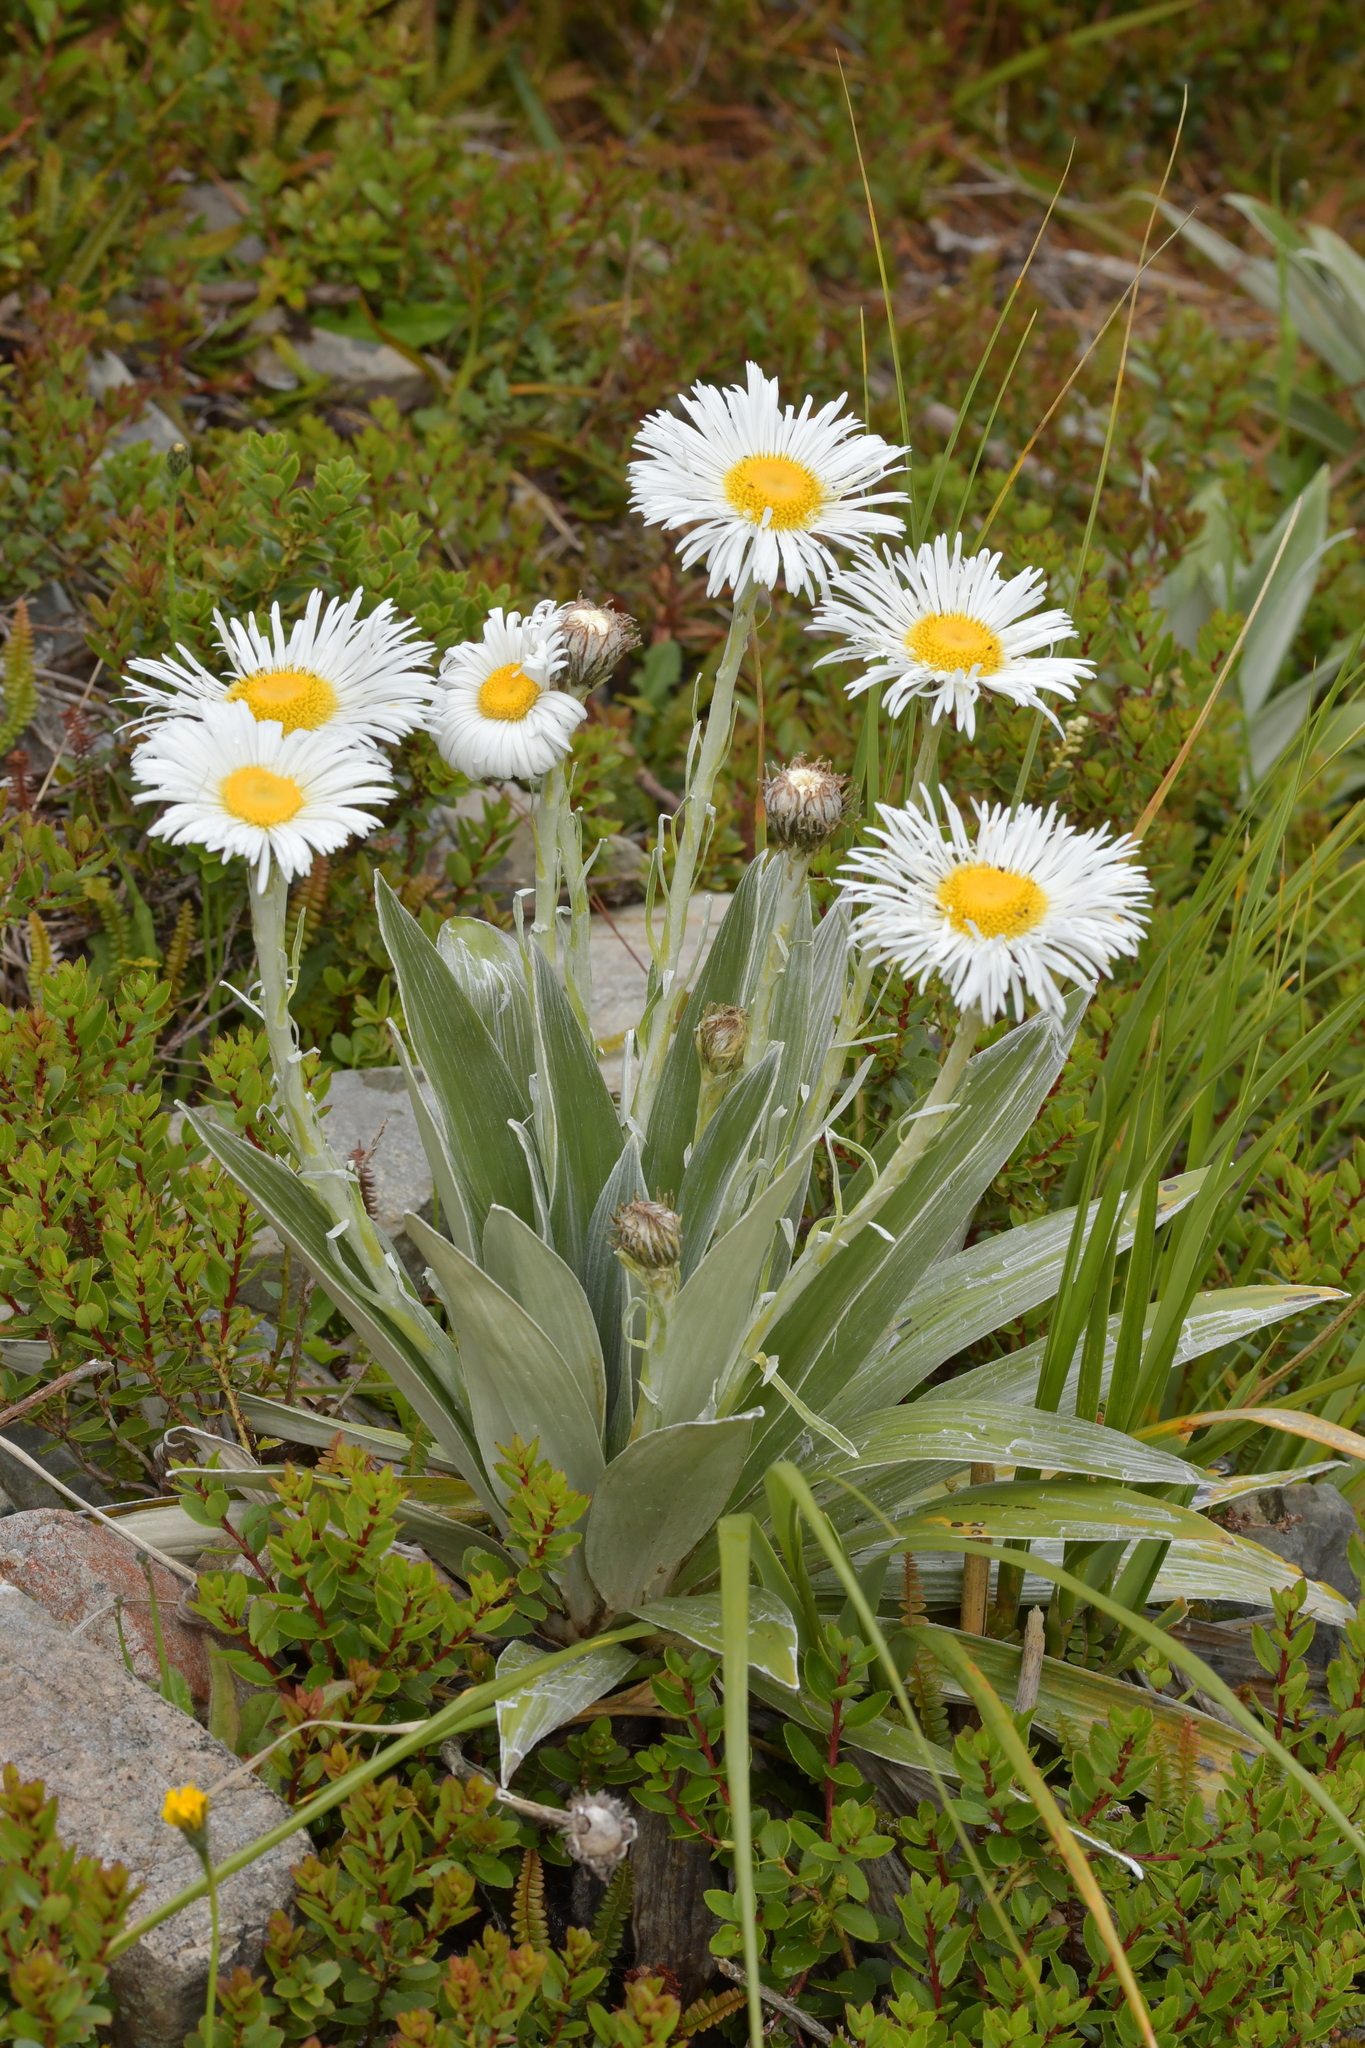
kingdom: Plantae
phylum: Tracheophyta
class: Magnoliopsida
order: Asterales
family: Asteraceae
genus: Celmisia
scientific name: Celmisia semicordata
